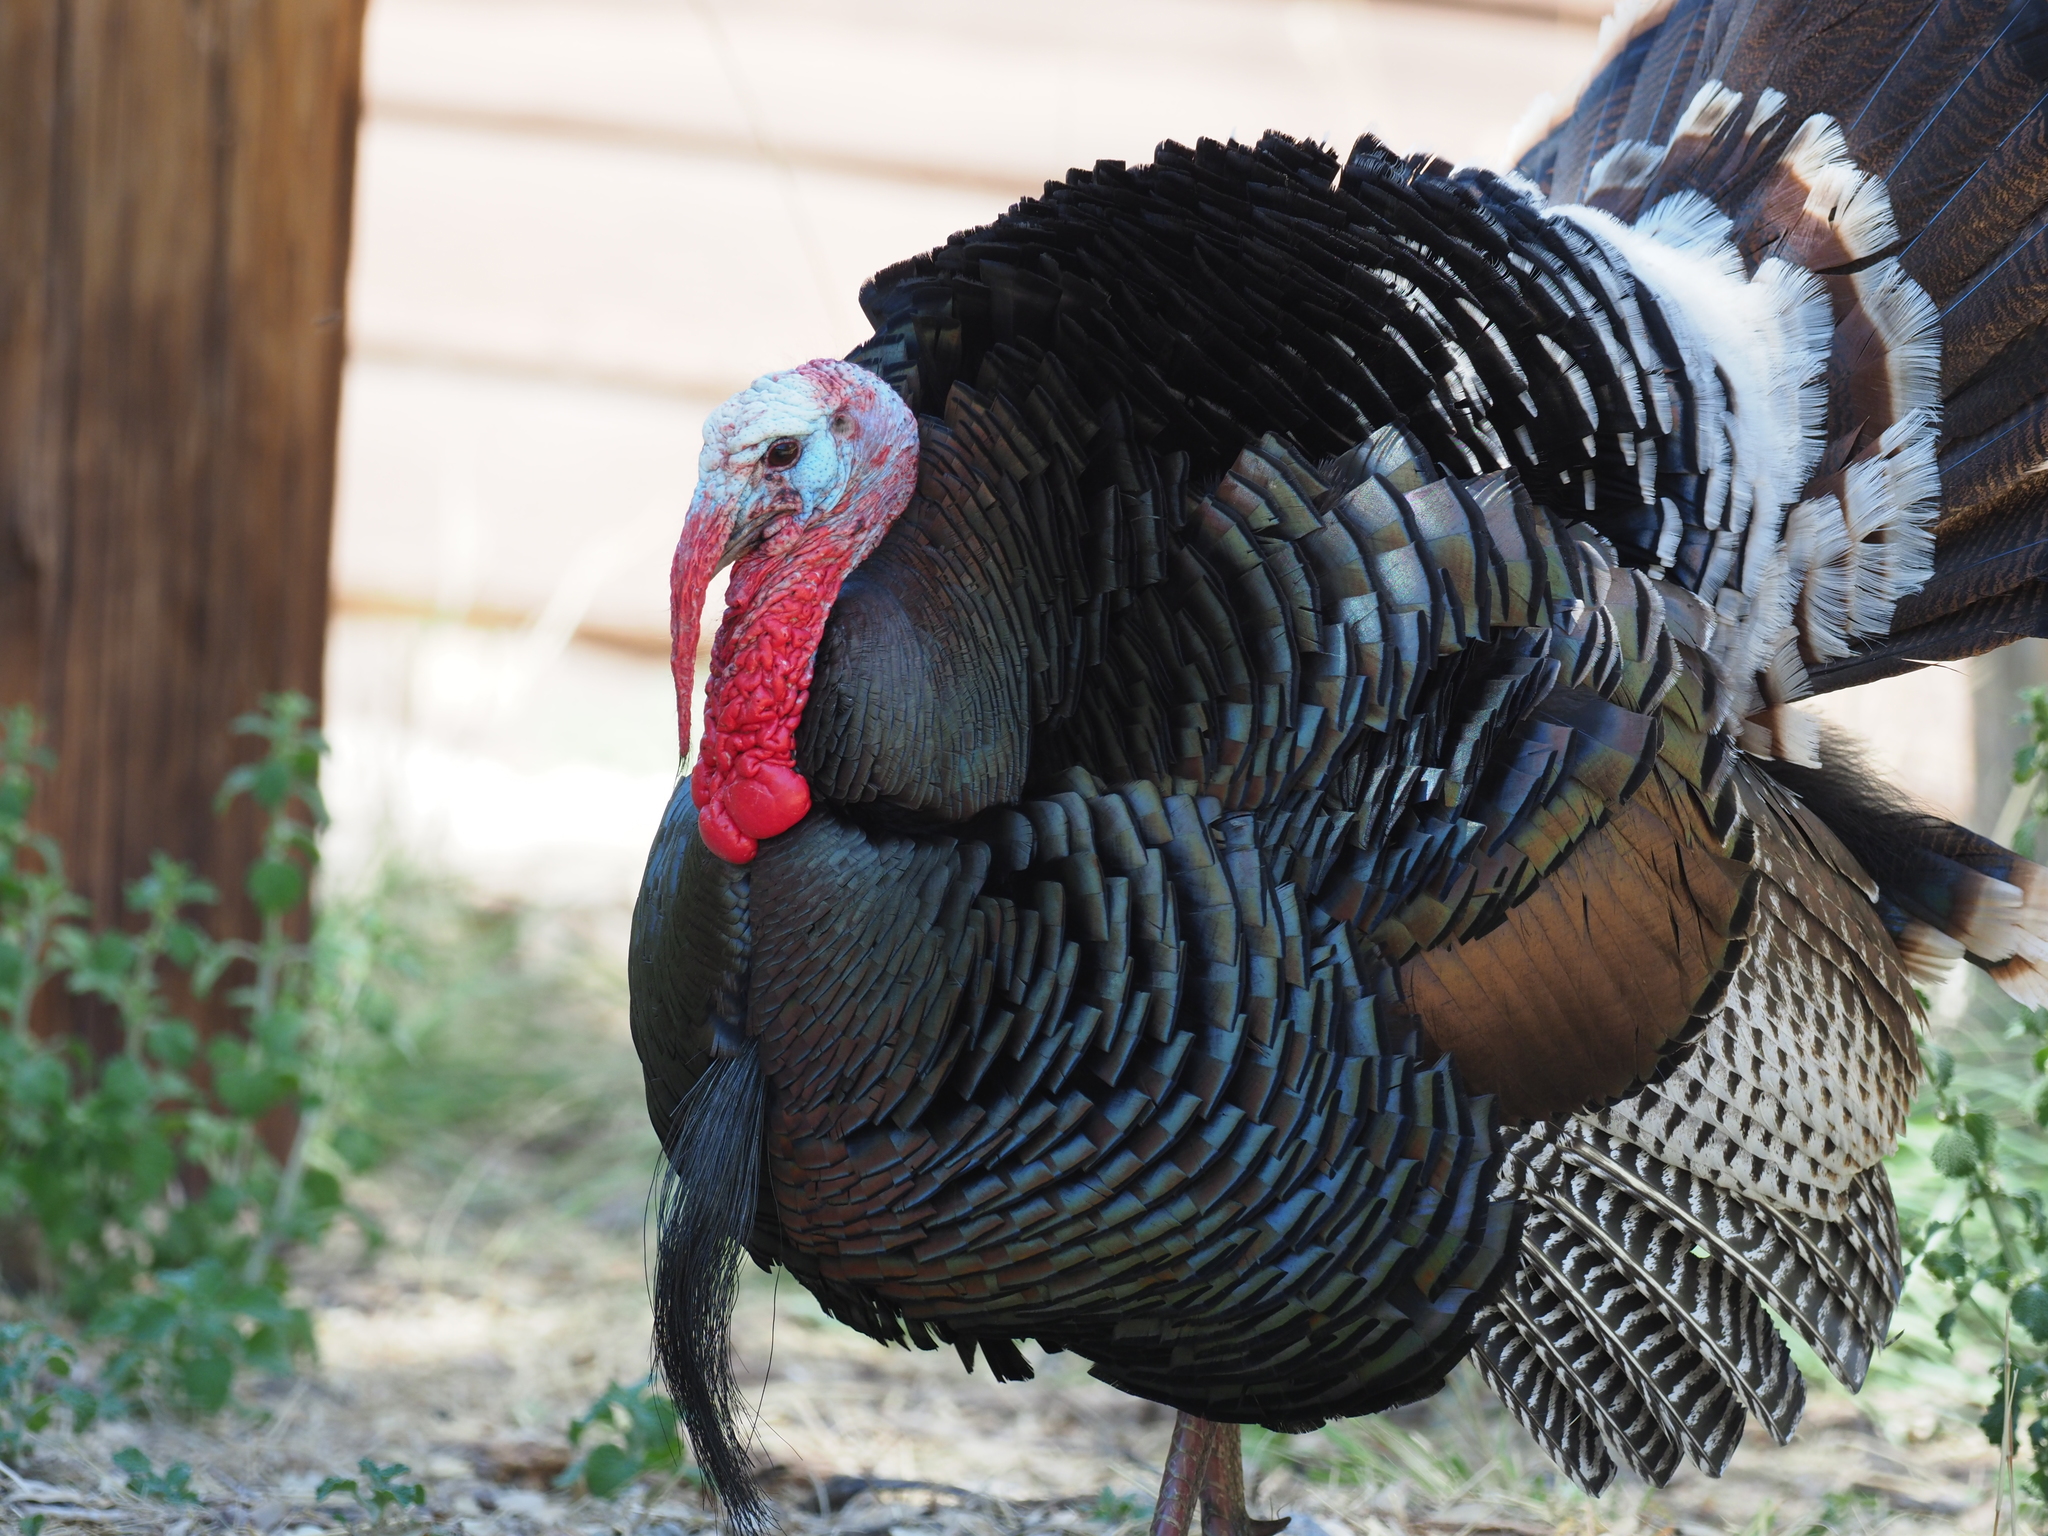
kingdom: Animalia
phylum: Chordata
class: Aves
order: Galliformes
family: Phasianidae
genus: Meleagris
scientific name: Meleagris gallopavo
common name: Wild turkey
